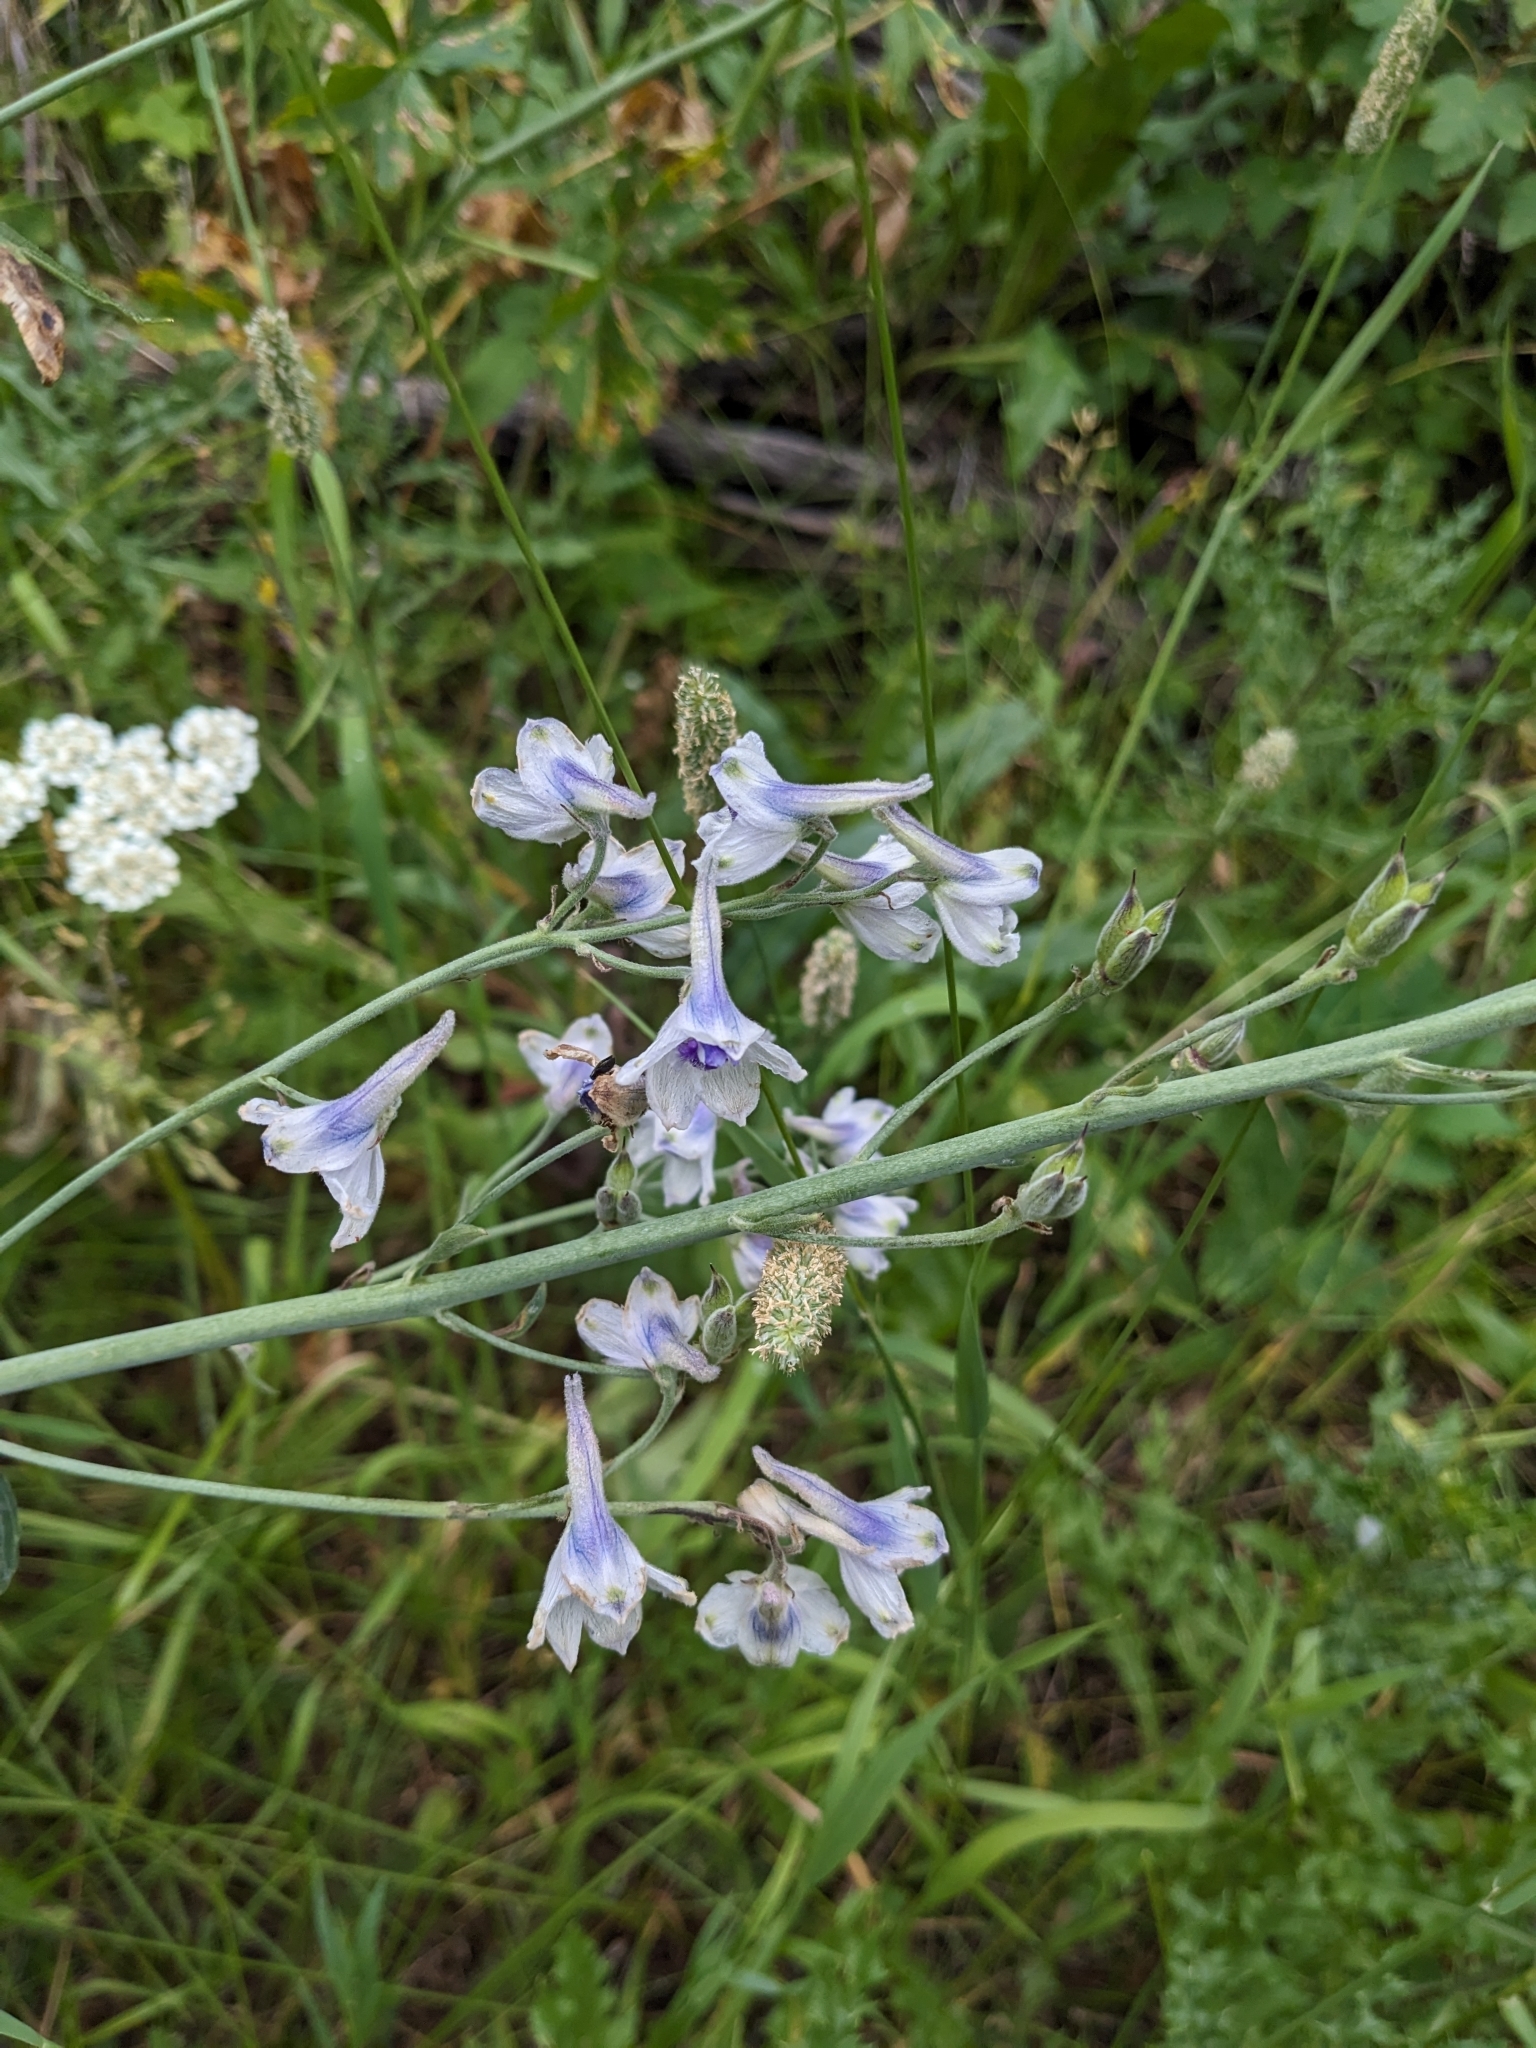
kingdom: Plantae
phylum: Tracheophyta
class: Magnoliopsida
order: Ranunculales
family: Ranunculaceae
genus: Delphinium
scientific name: Delphinium occidentale
